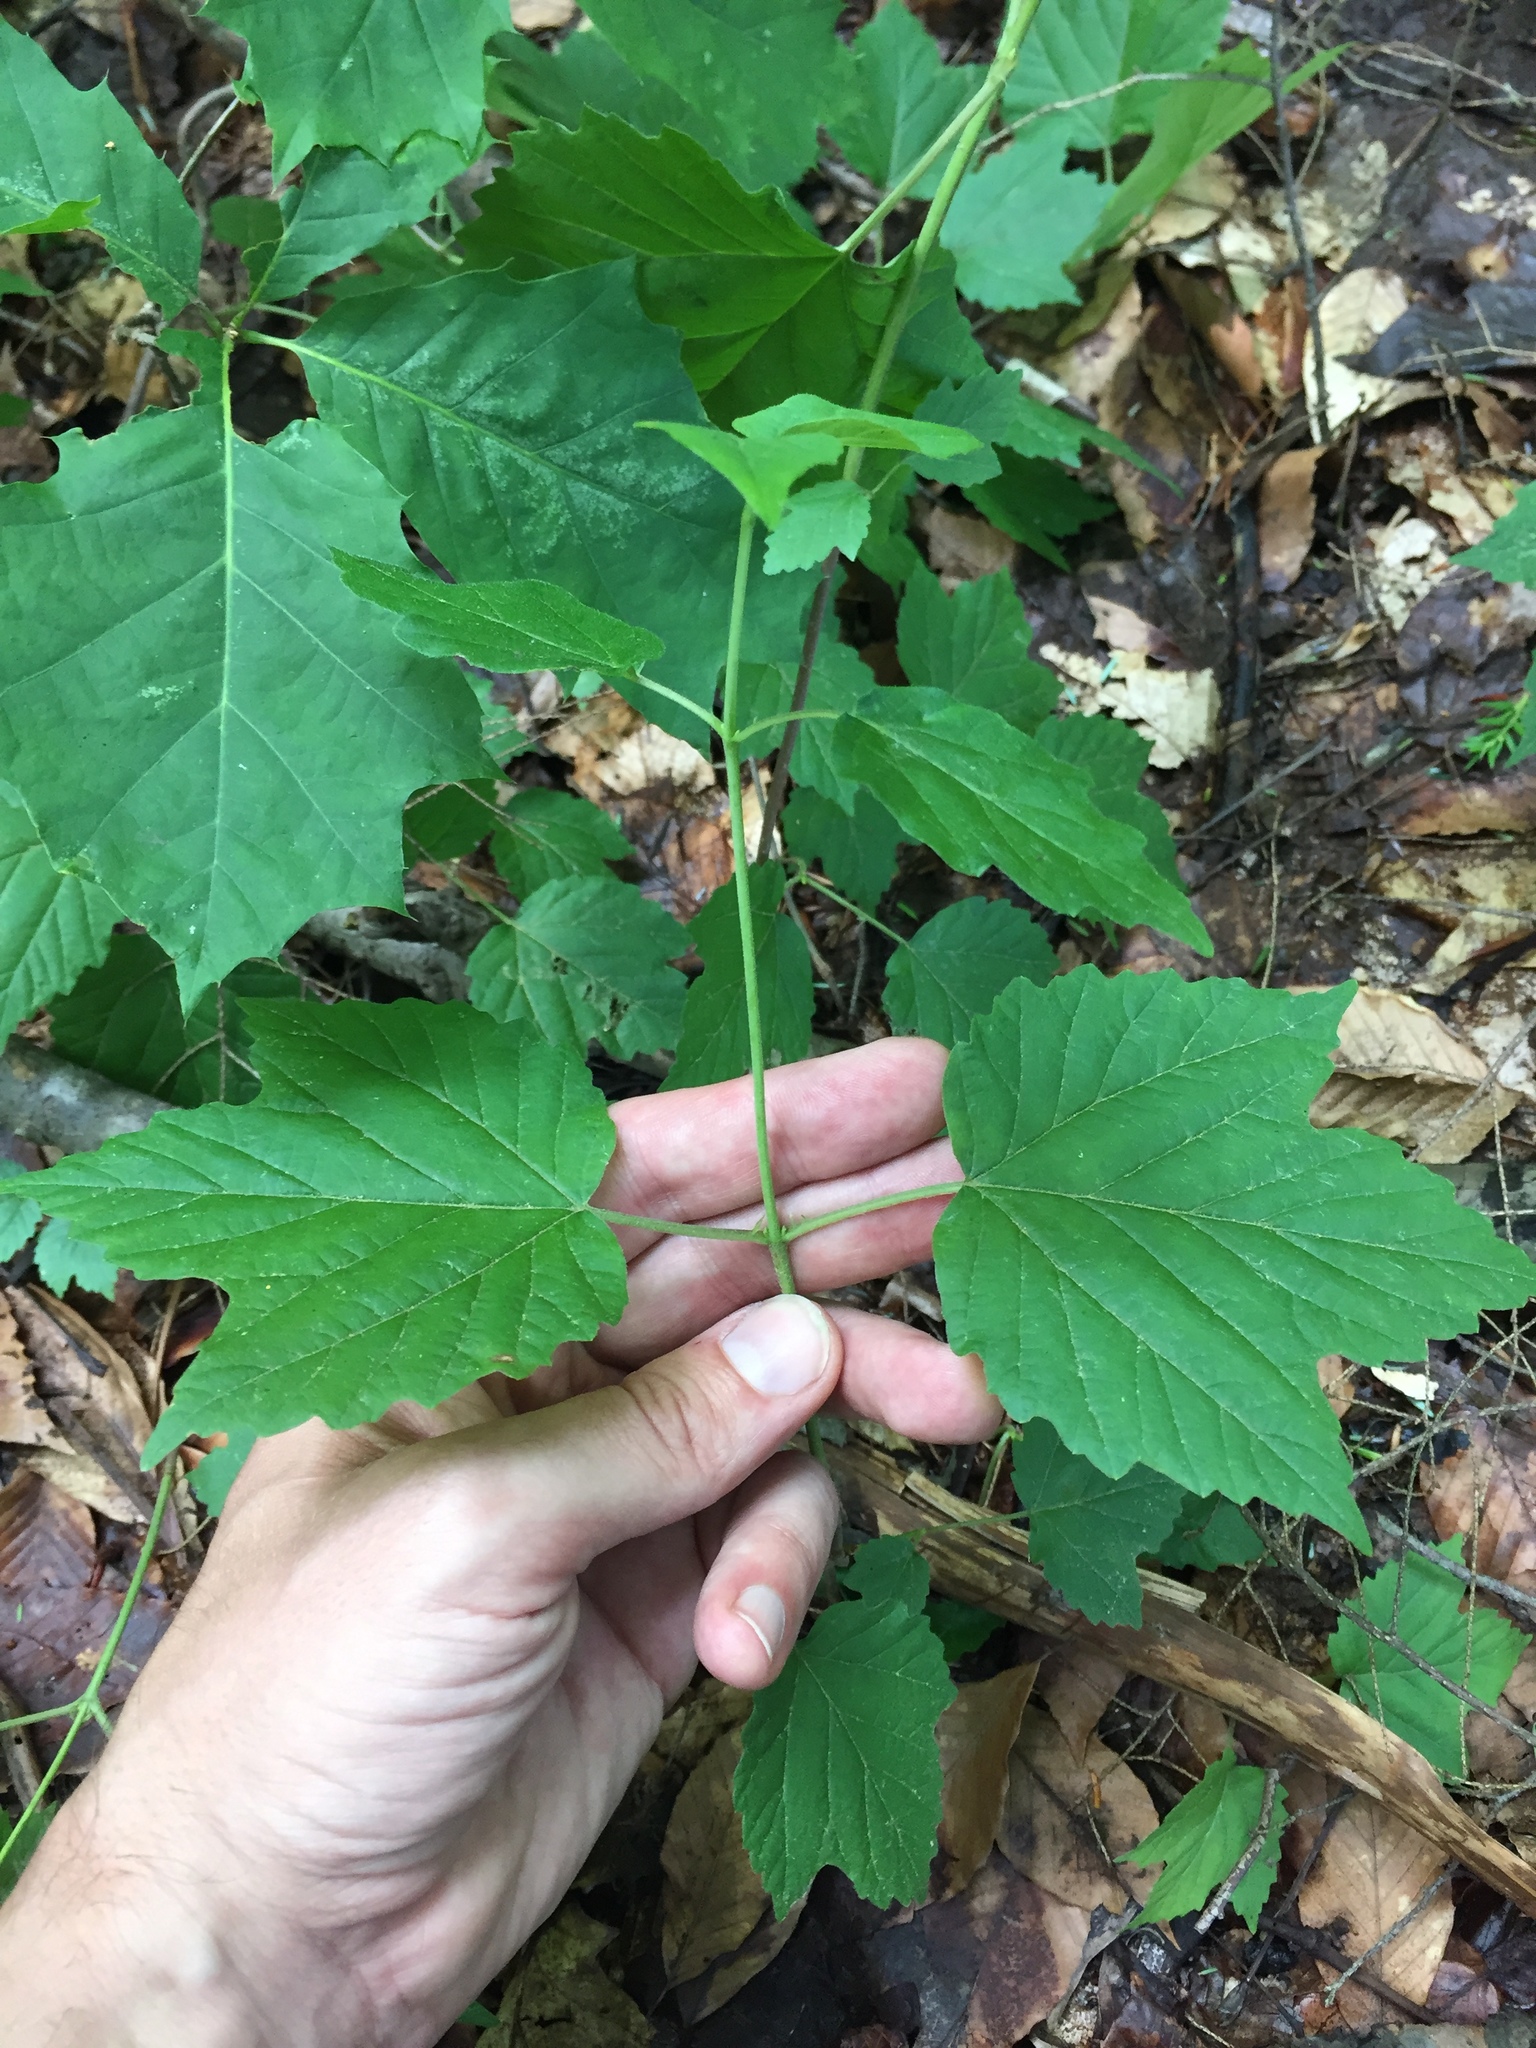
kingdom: Plantae
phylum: Tracheophyta
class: Magnoliopsida
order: Dipsacales
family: Viburnaceae
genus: Viburnum
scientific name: Viburnum acerifolium
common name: Dockmackie
